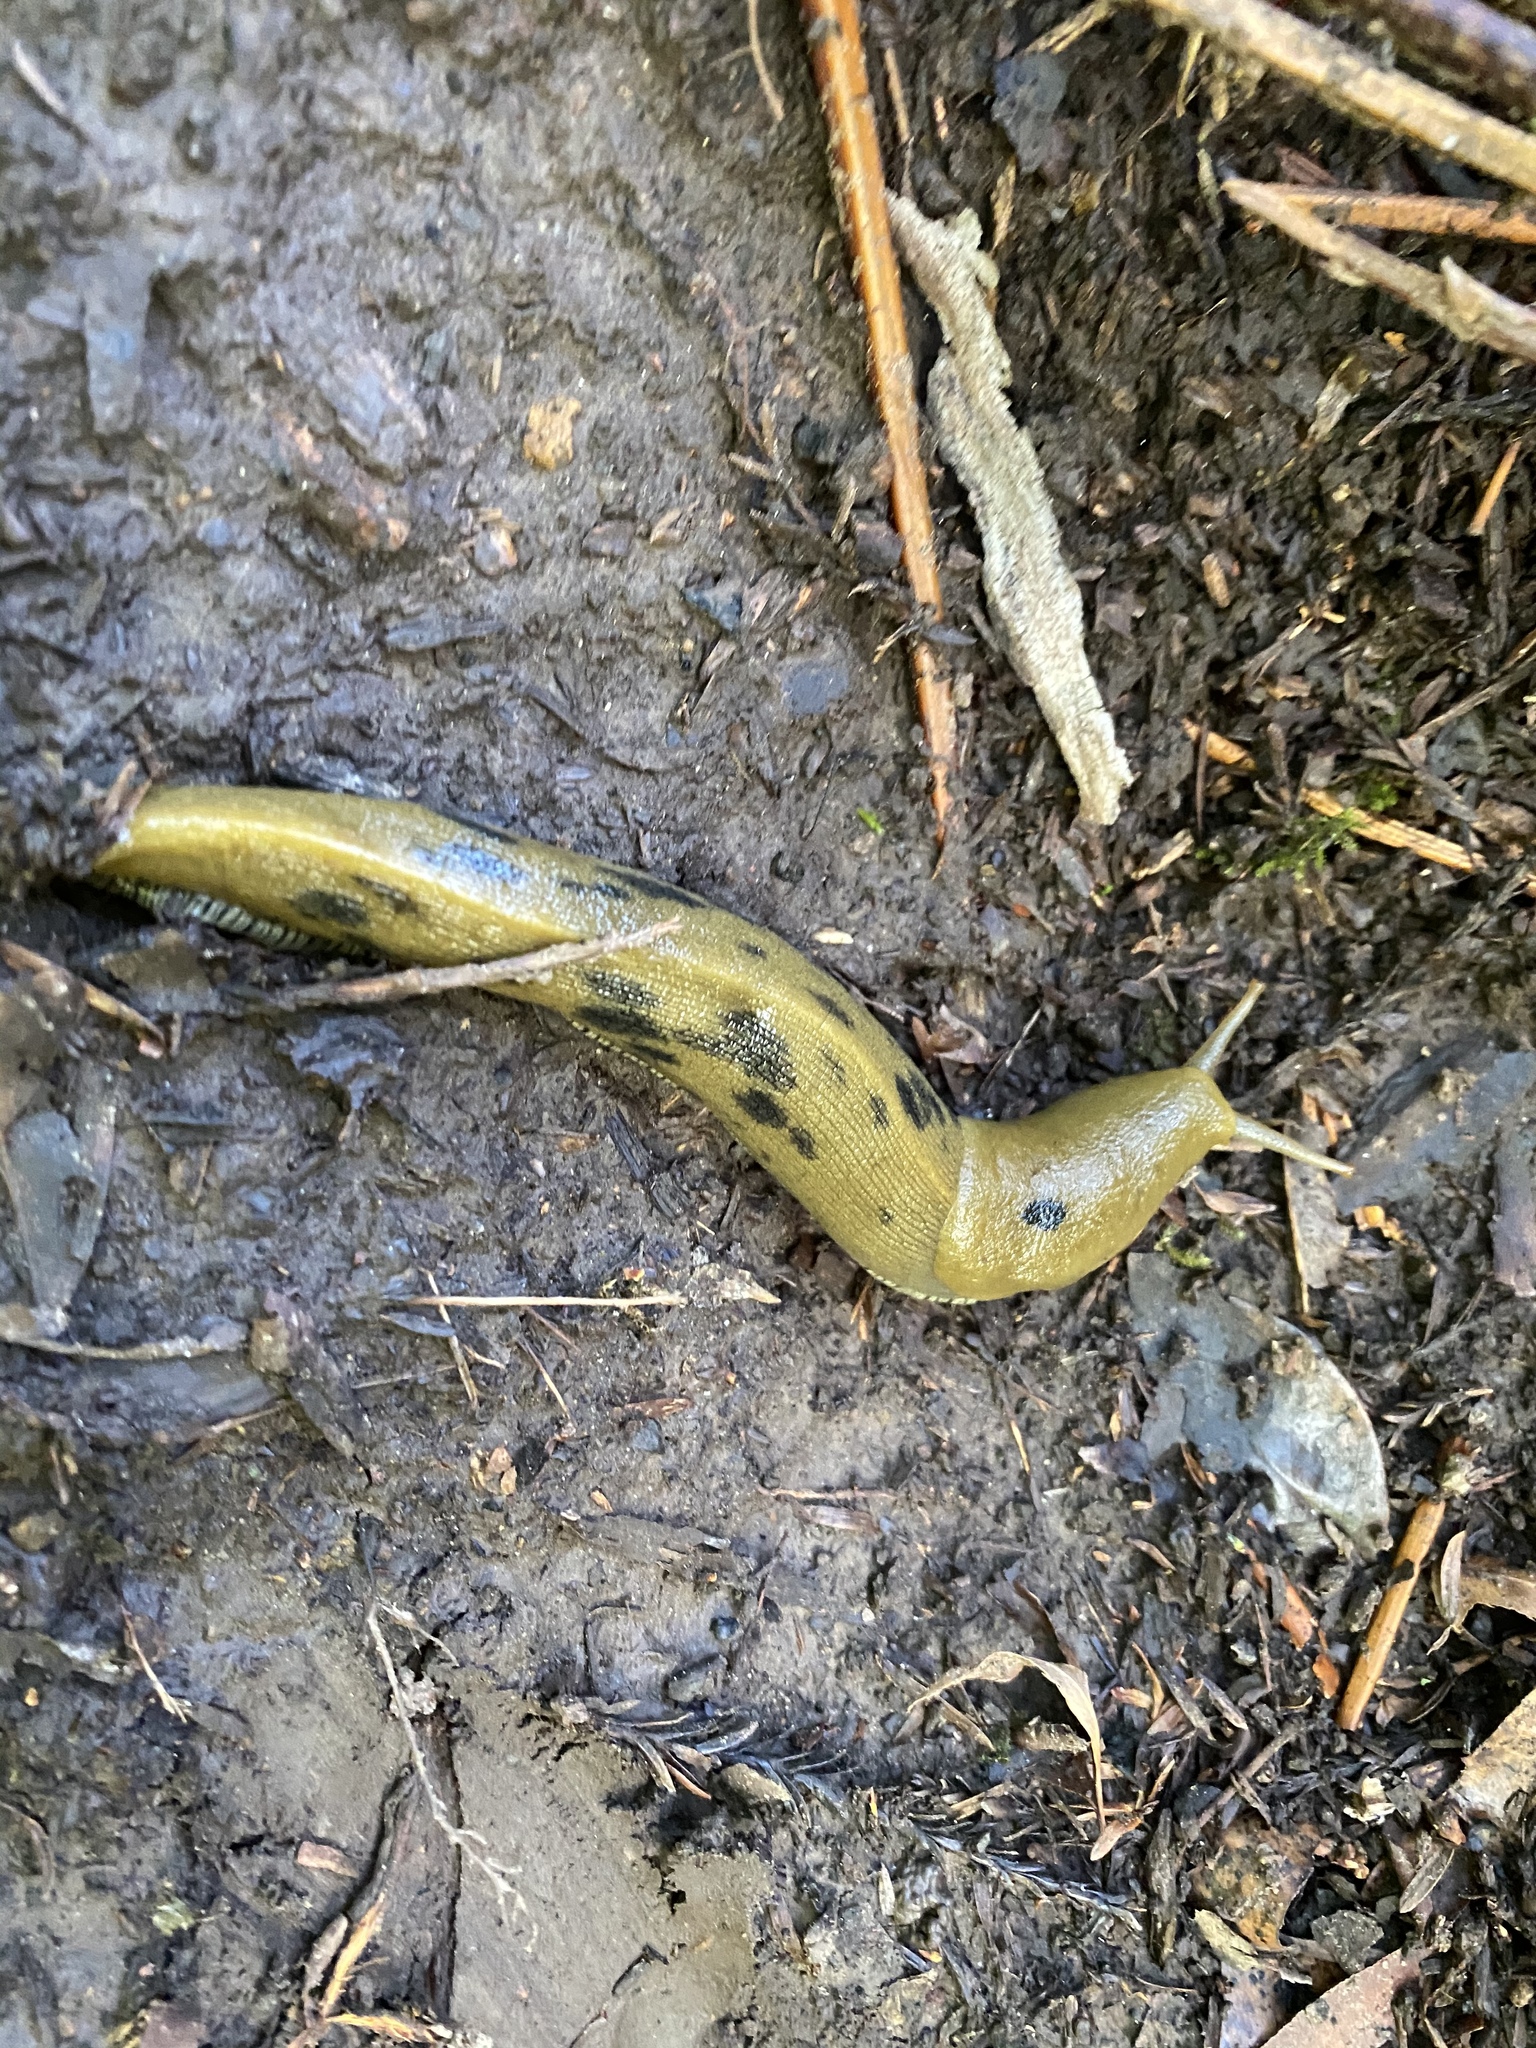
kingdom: Animalia
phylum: Mollusca
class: Gastropoda
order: Stylommatophora
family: Ariolimacidae
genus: Ariolimax
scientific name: Ariolimax buttoni
